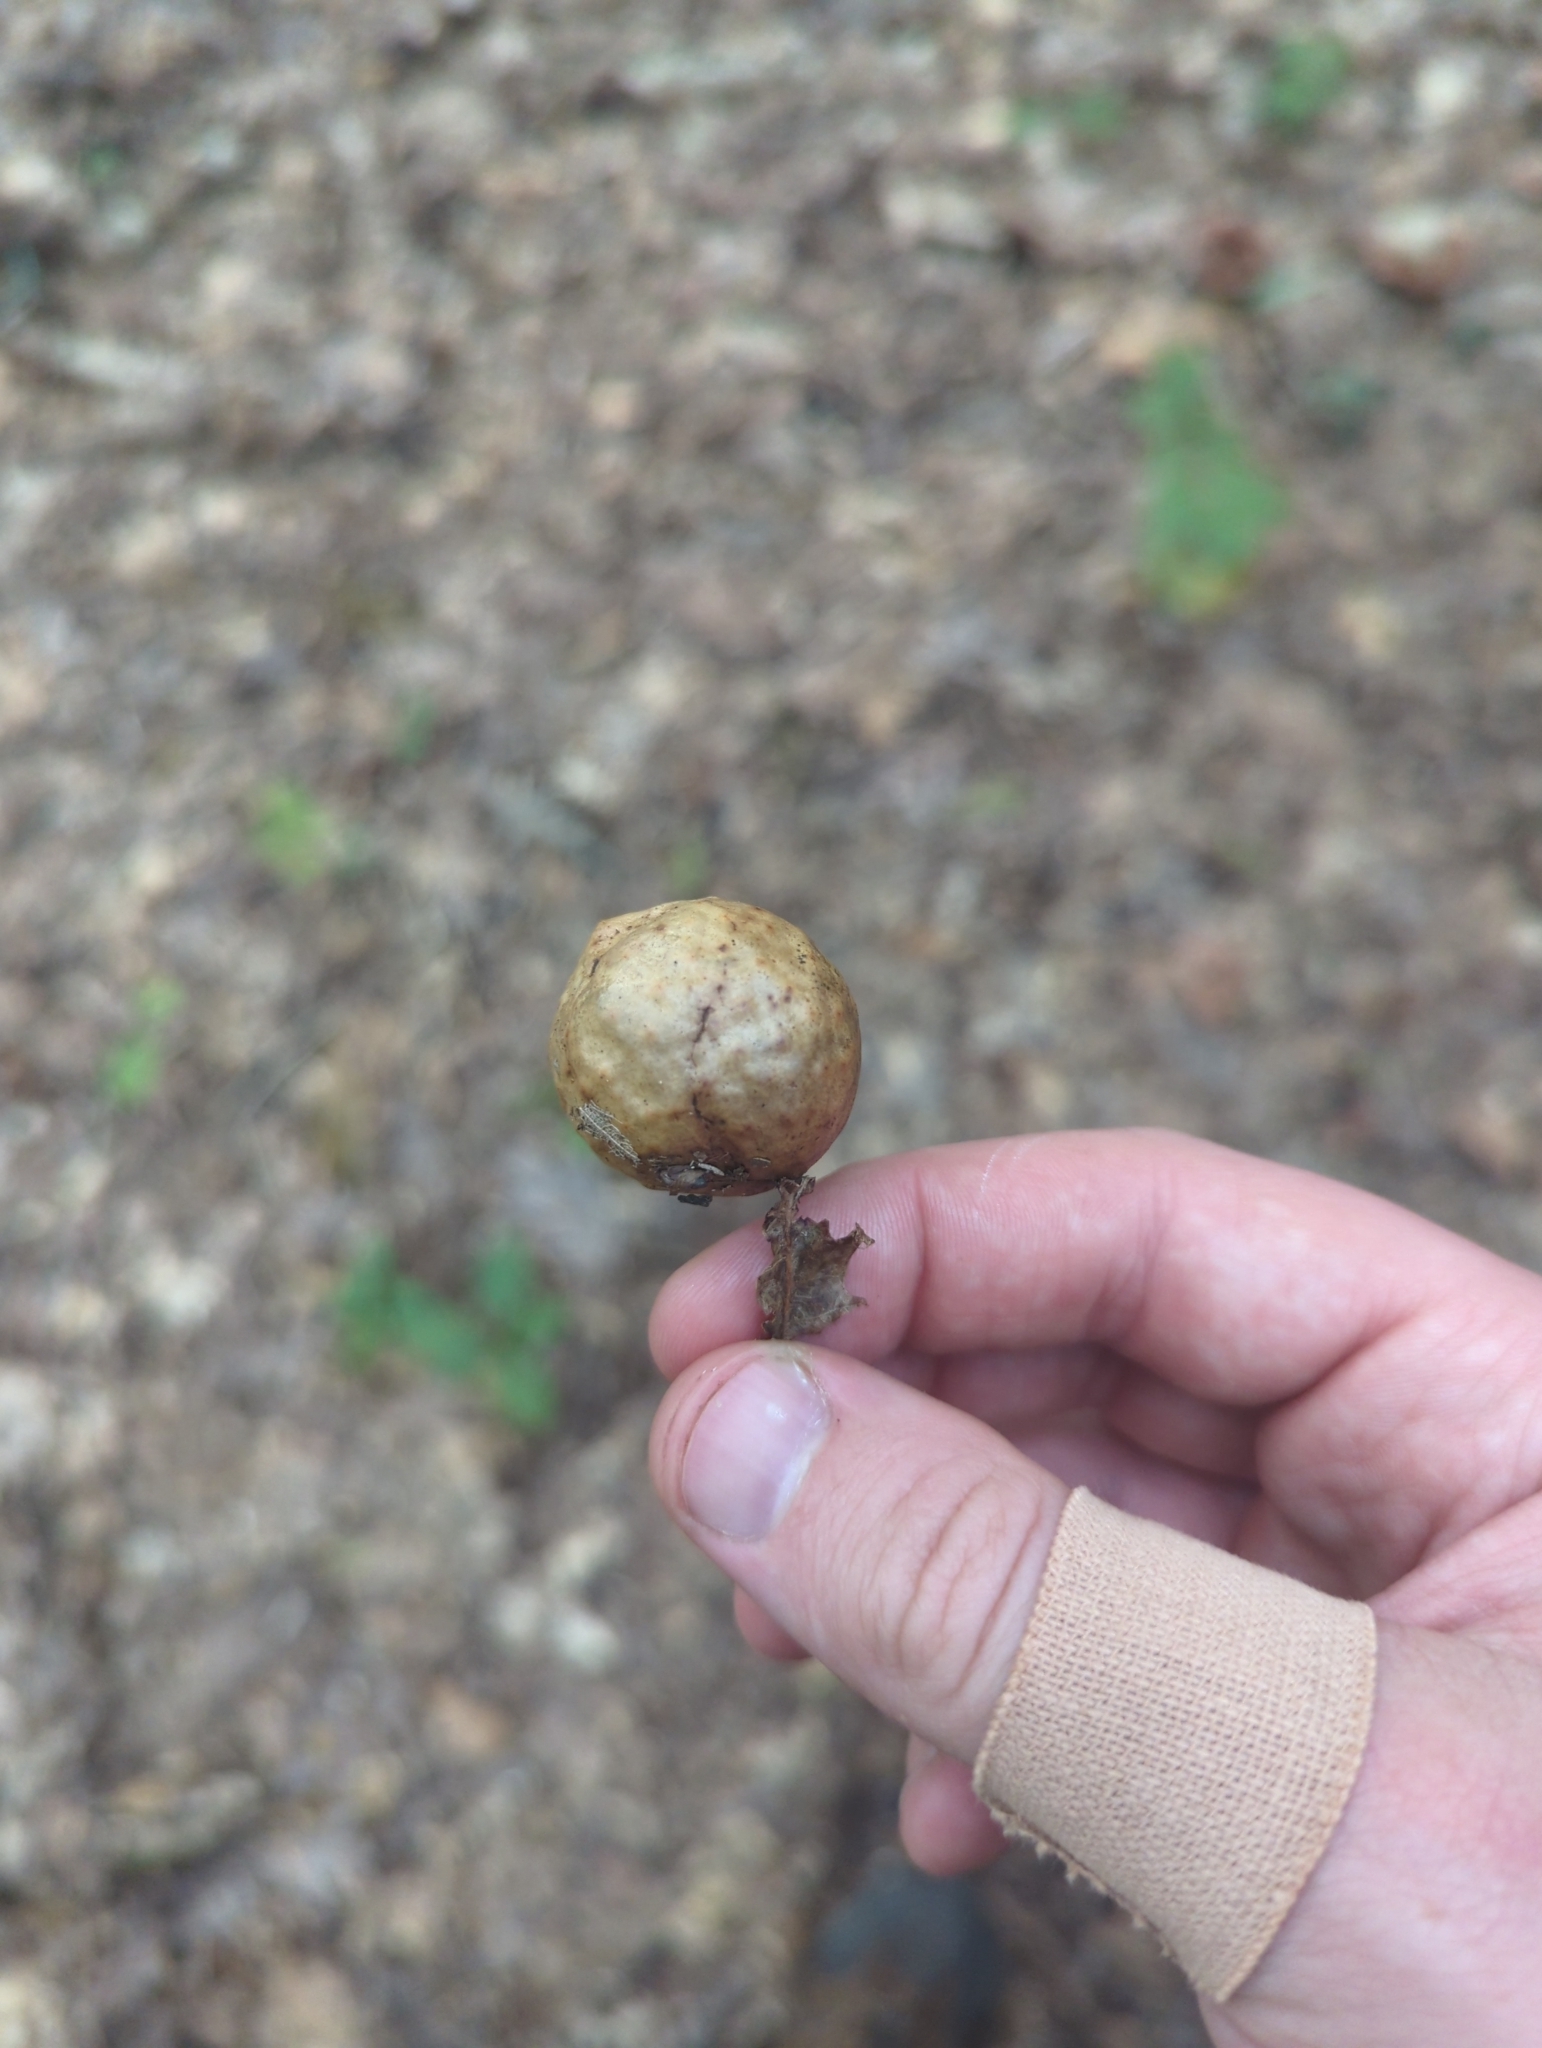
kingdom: Animalia
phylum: Arthropoda
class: Insecta
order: Hymenoptera
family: Cynipidae
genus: Amphibolips
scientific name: Amphibolips
